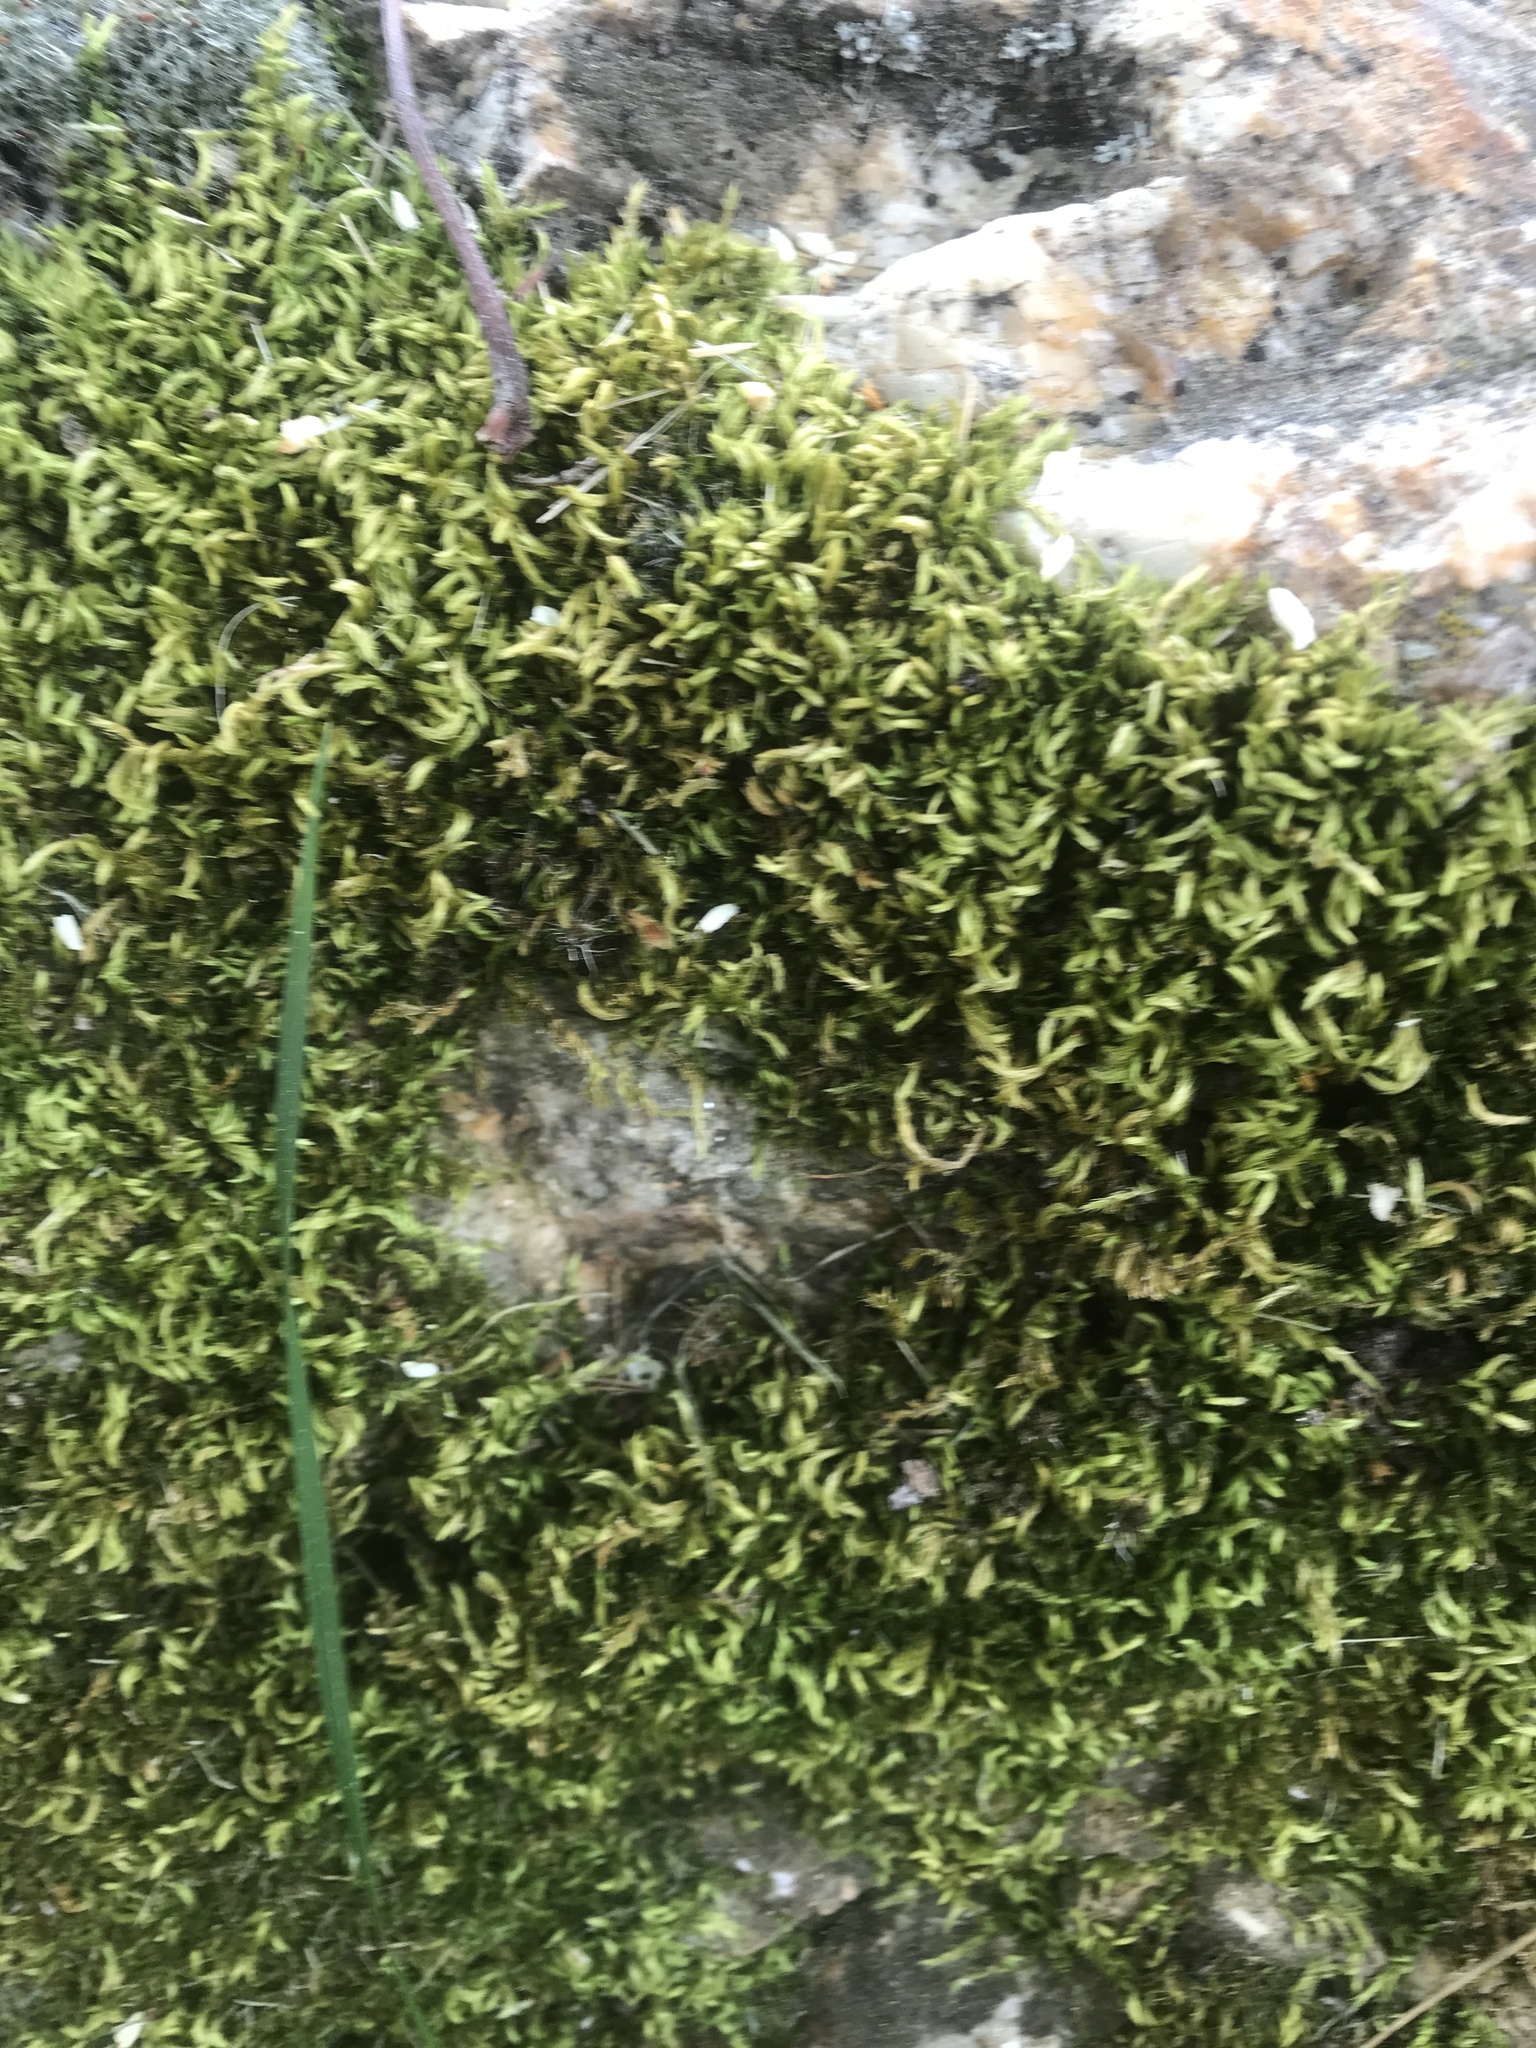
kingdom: Plantae
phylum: Bryophyta
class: Bryopsida
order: Hypnales
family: Entodontaceae
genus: Entodon
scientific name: Entodon seductrix
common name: Round-stemmed entodon moss
